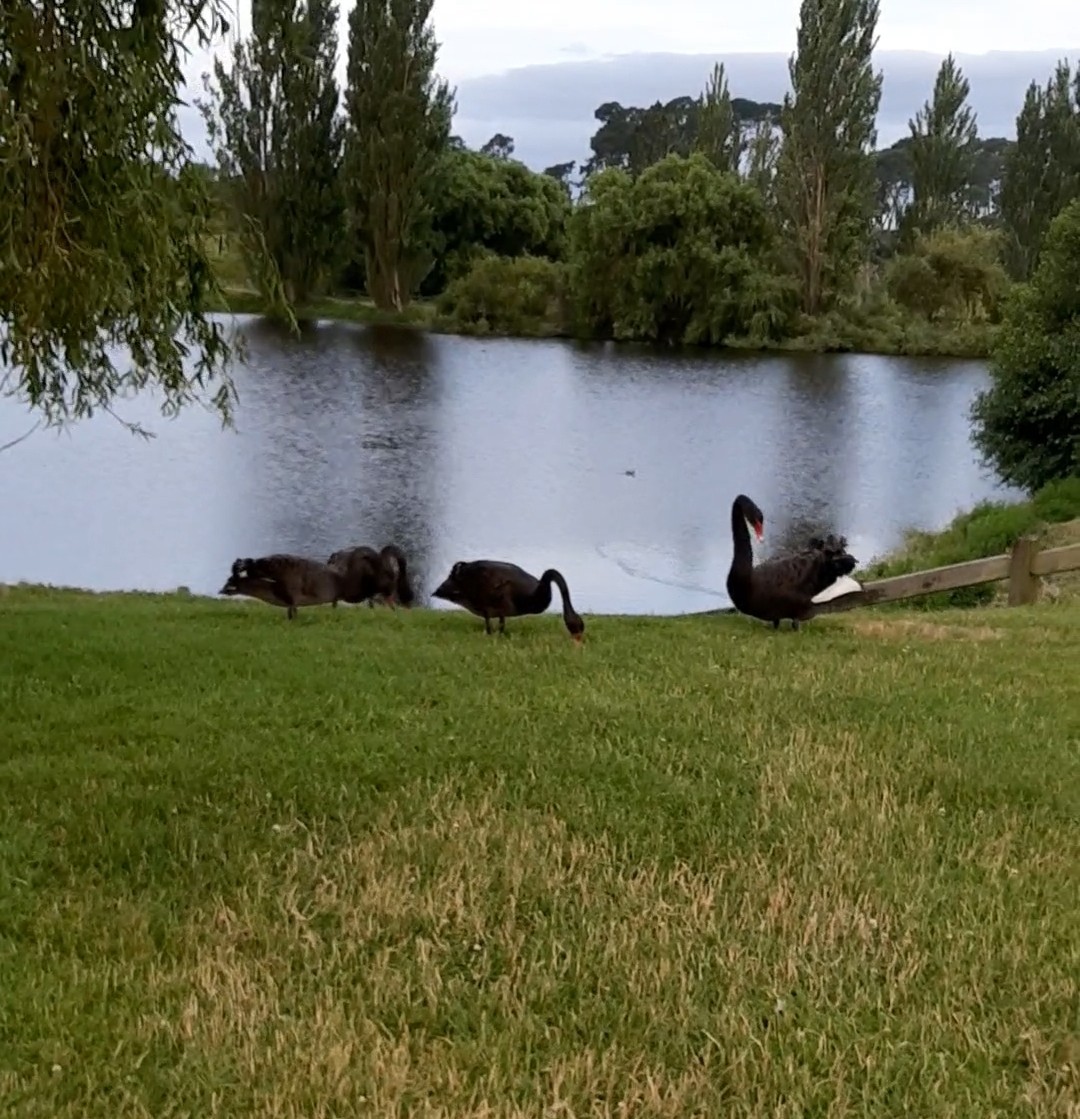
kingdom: Animalia
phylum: Chordata
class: Aves
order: Anseriformes
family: Anatidae
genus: Cygnus
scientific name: Cygnus atratus
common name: Black swan
